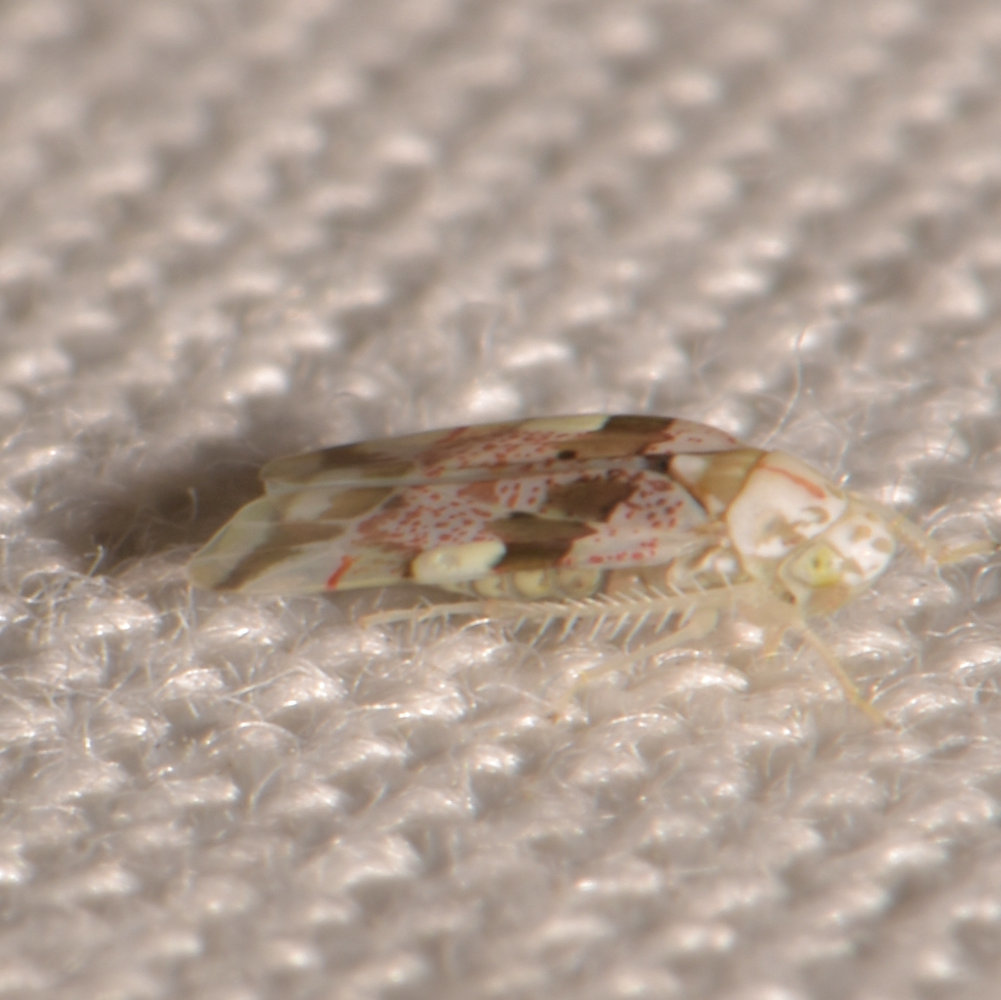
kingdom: Animalia
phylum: Arthropoda
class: Insecta
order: Hemiptera
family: Cicadellidae
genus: Hymetta
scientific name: Hymetta balteata
